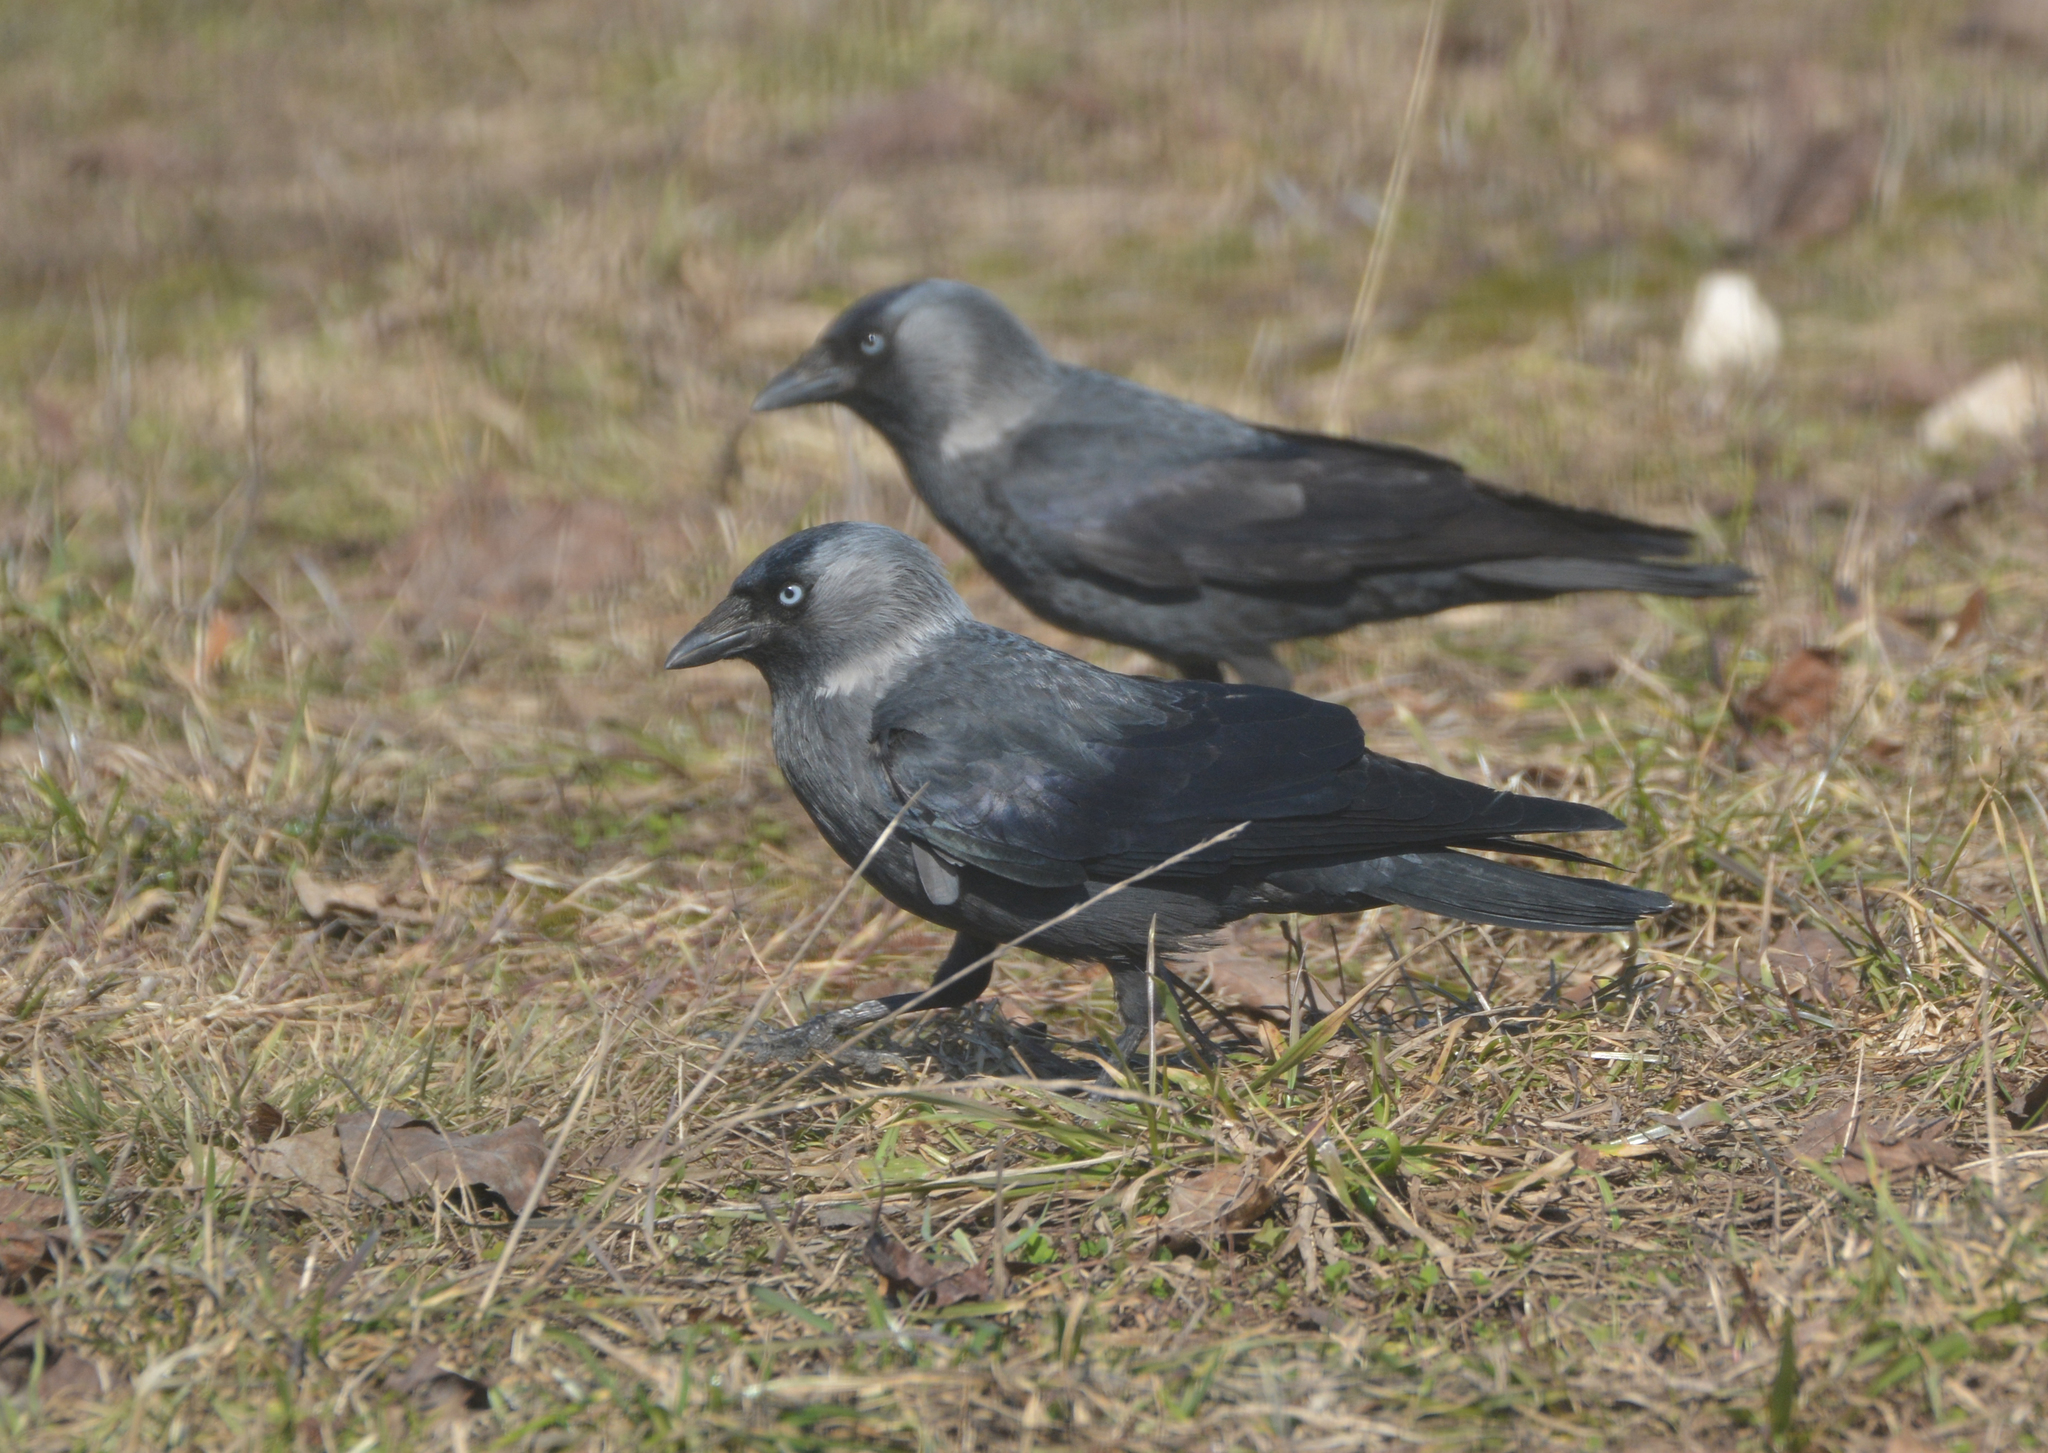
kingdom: Animalia
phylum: Chordata
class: Aves
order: Passeriformes
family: Corvidae
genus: Coloeus
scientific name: Coloeus monedula
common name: Western jackdaw
